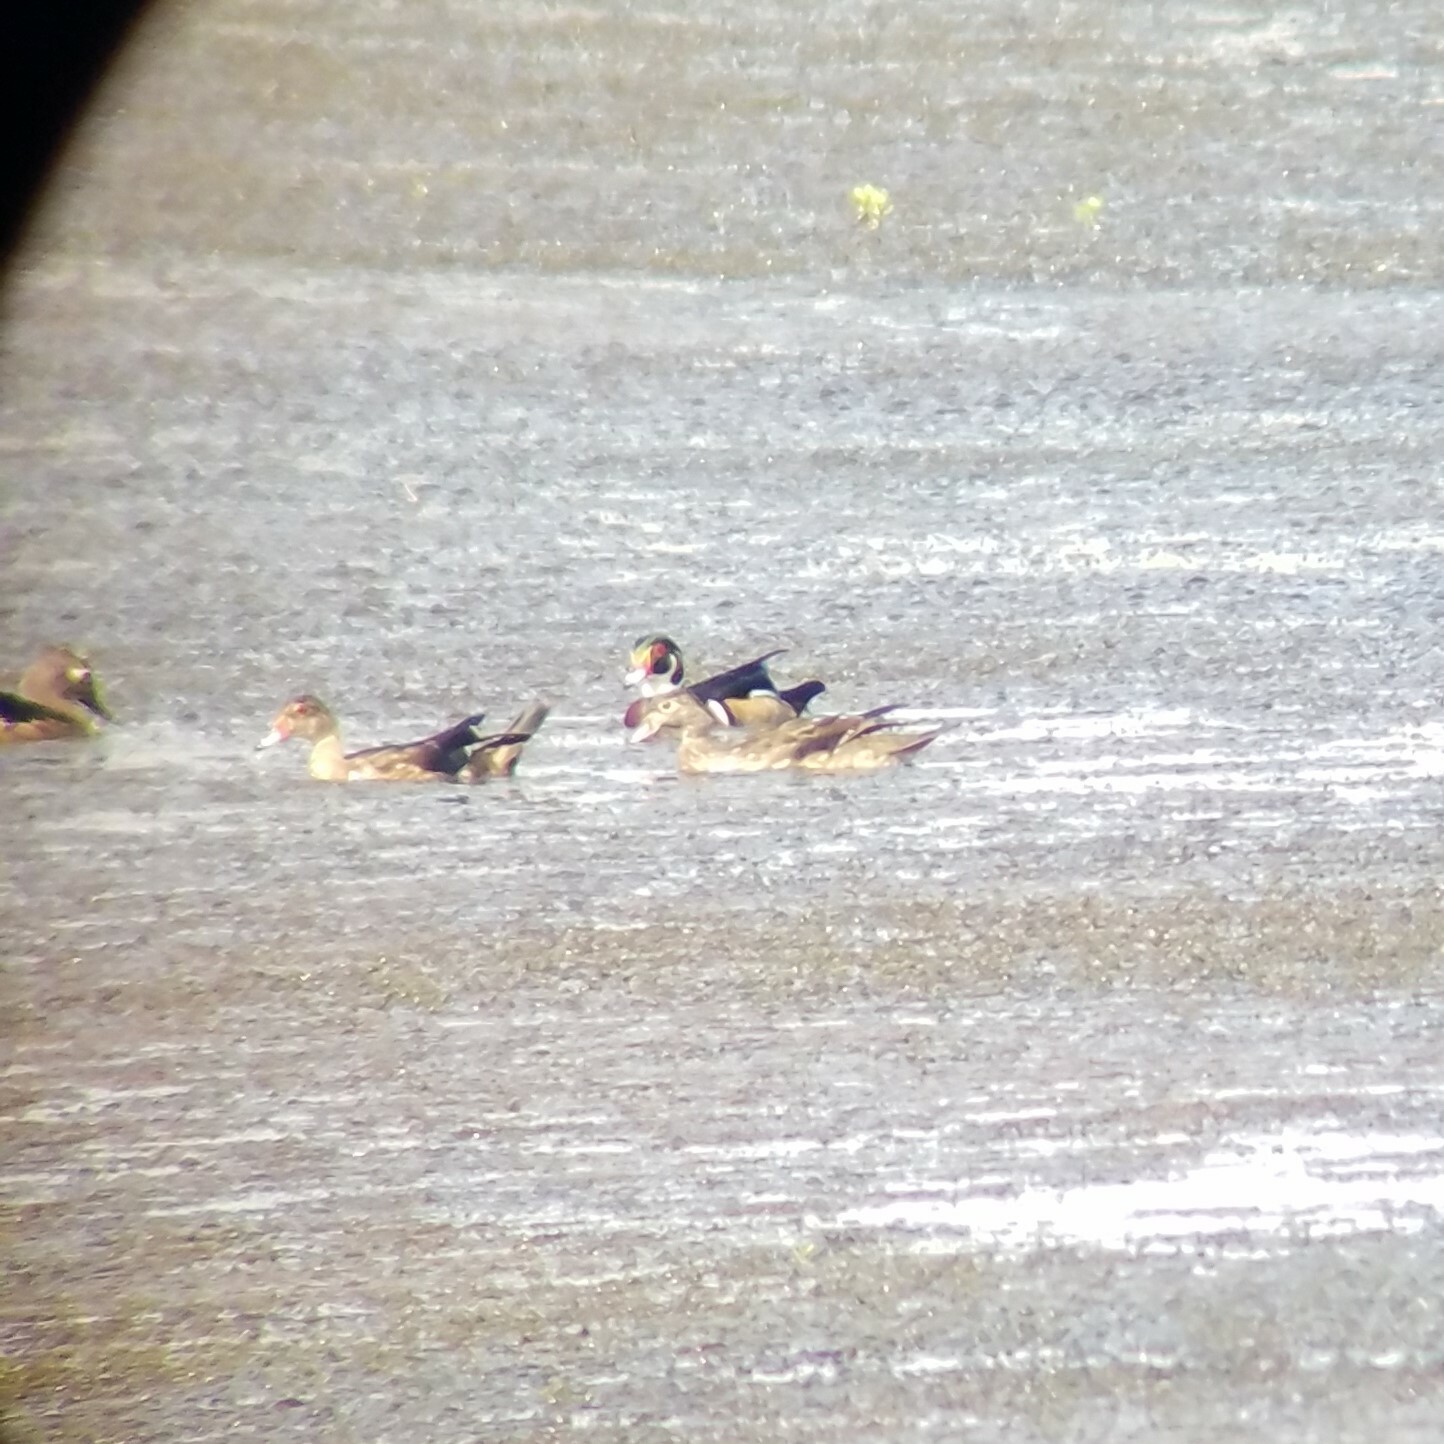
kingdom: Animalia
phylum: Chordata
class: Aves
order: Anseriformes
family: Anatidae
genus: Aix
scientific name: Aix sponsa
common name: Wood duck
